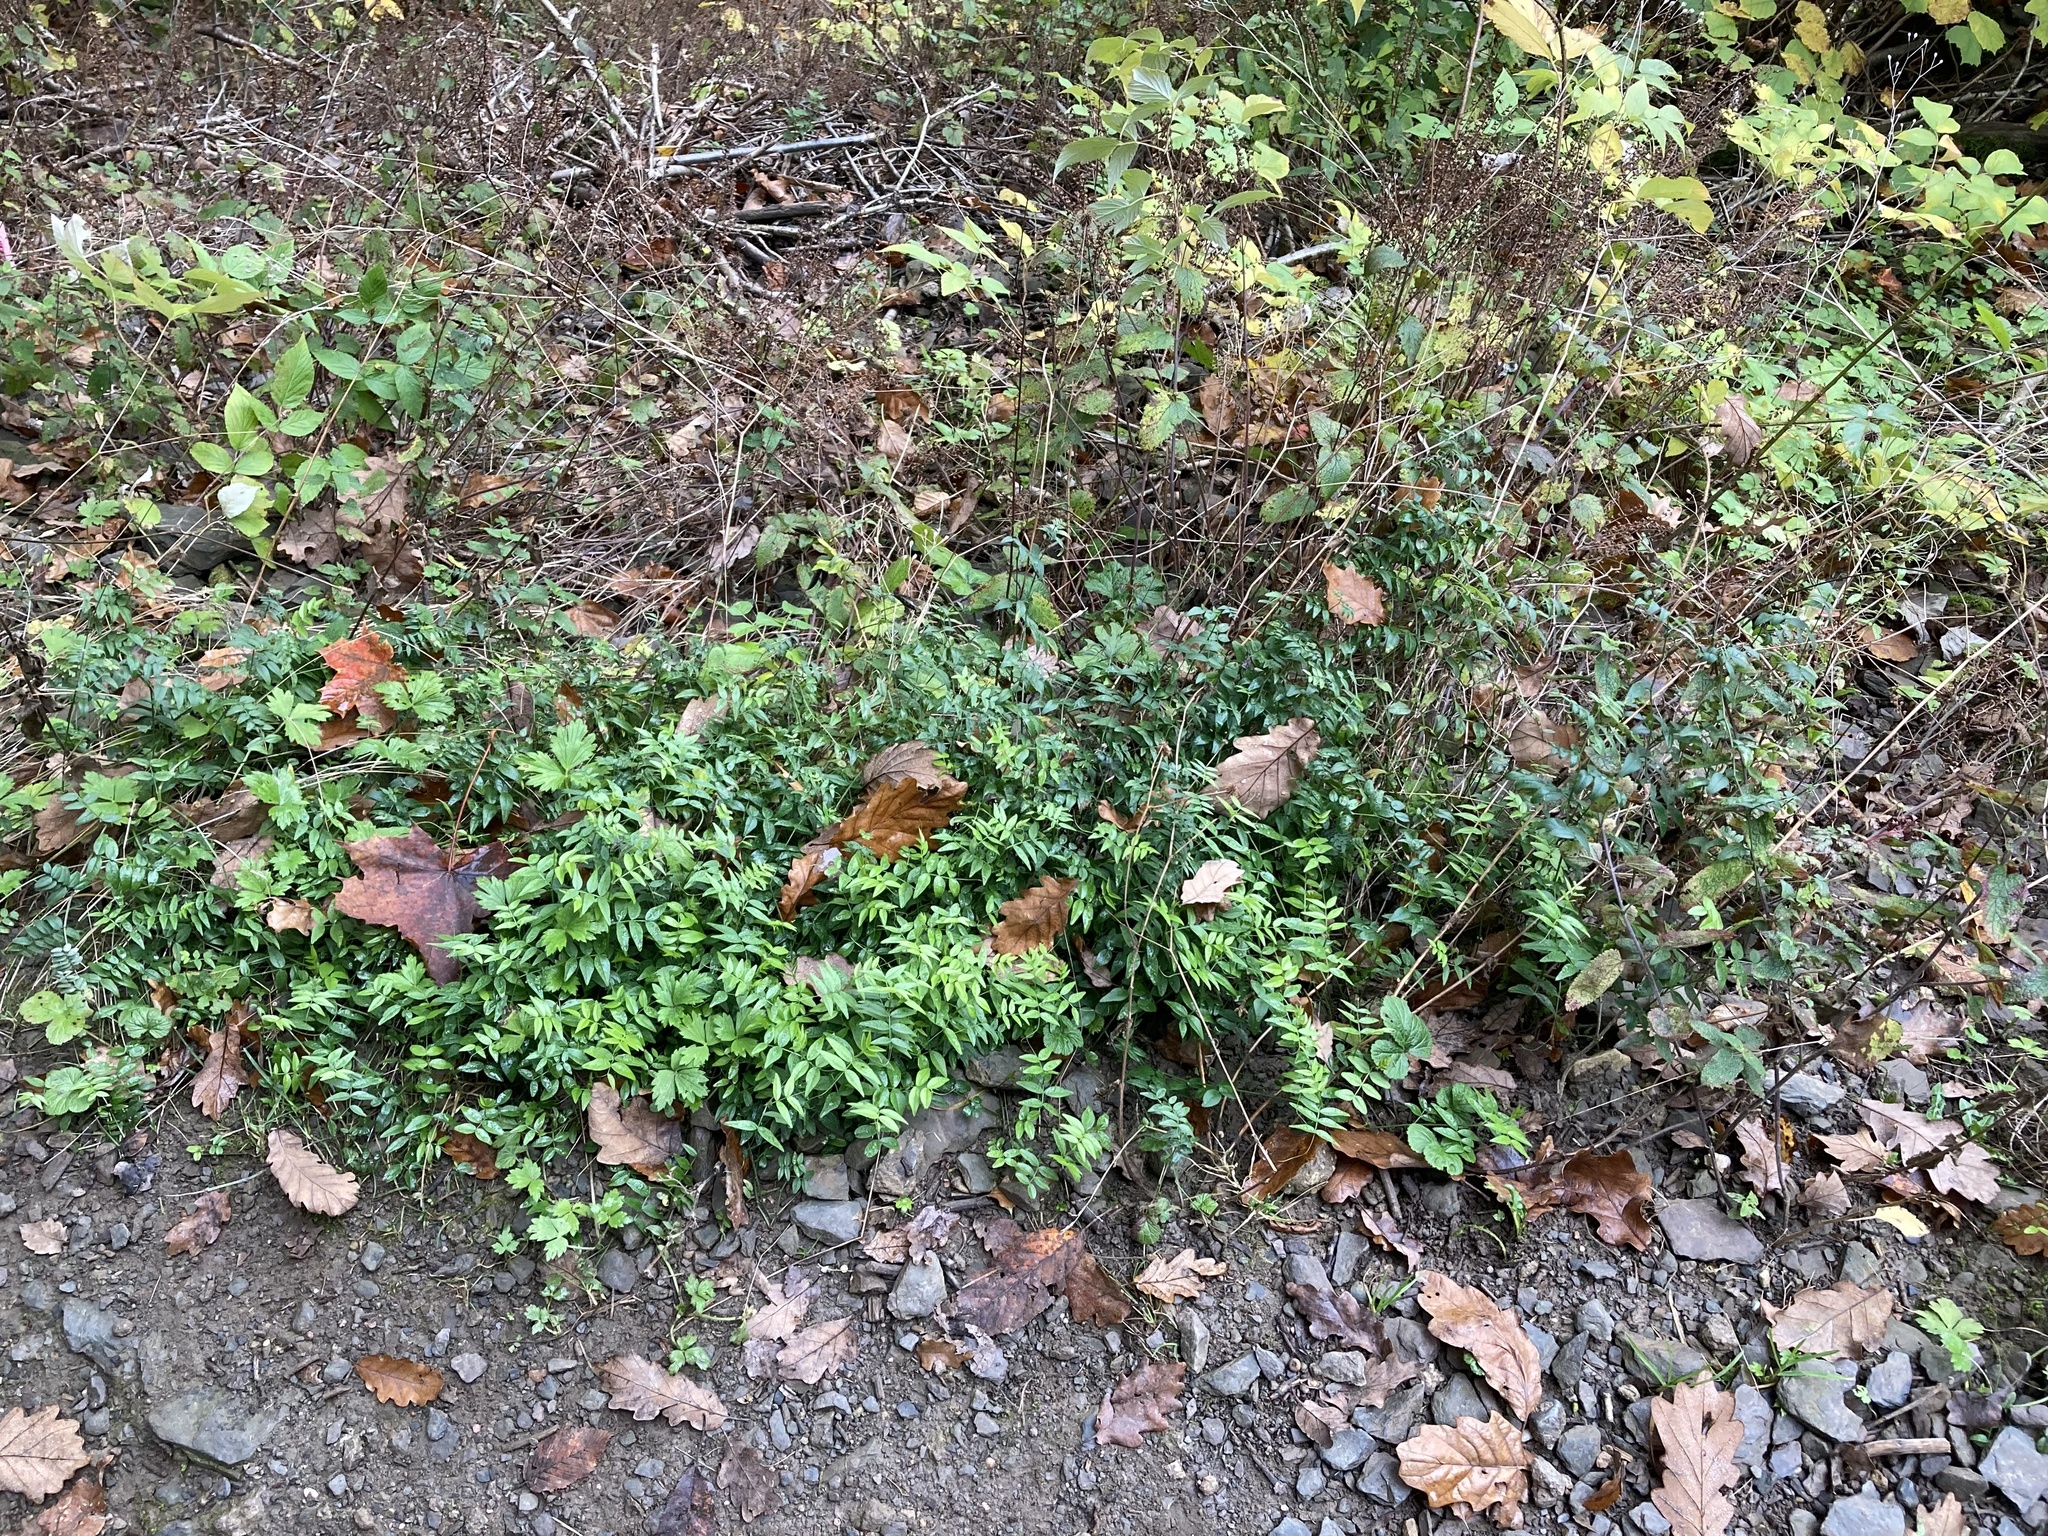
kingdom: Plantae
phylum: Tracheophyta
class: Magnoliopsida
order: Fabales
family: Fabaceae
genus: Vicia
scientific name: Vicia sepium
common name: Bush vetch
